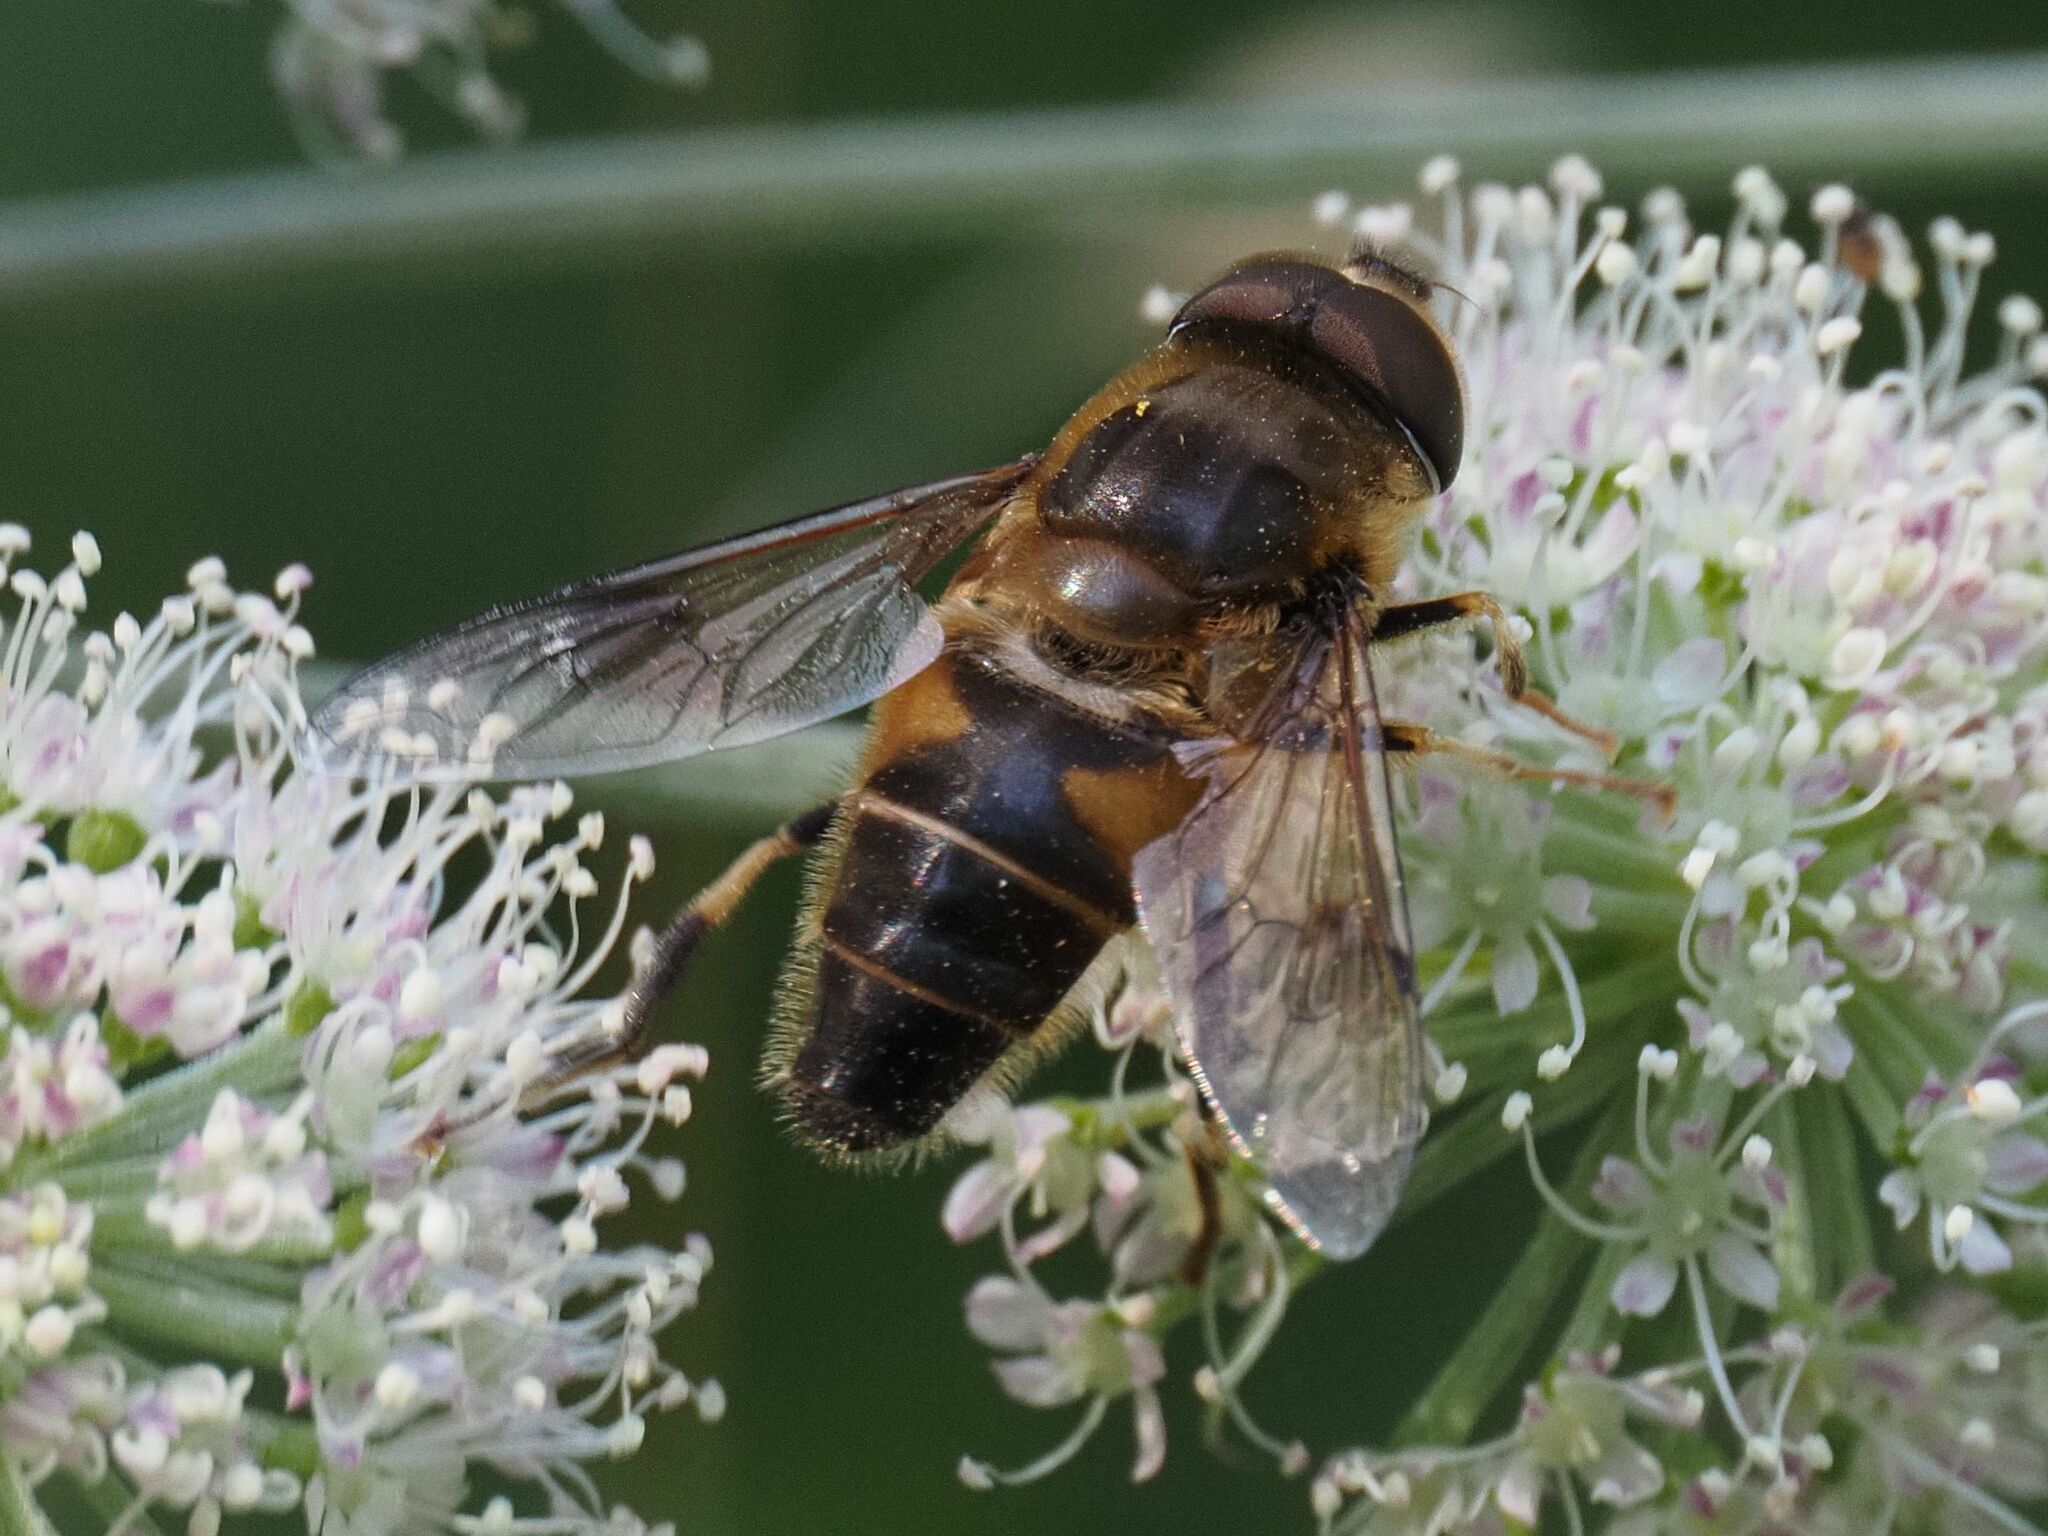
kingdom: Animalia
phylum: Arthropoda
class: Insecta
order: Diptera
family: Syrphidae
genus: Eristalis
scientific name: Eristalis pertinax
